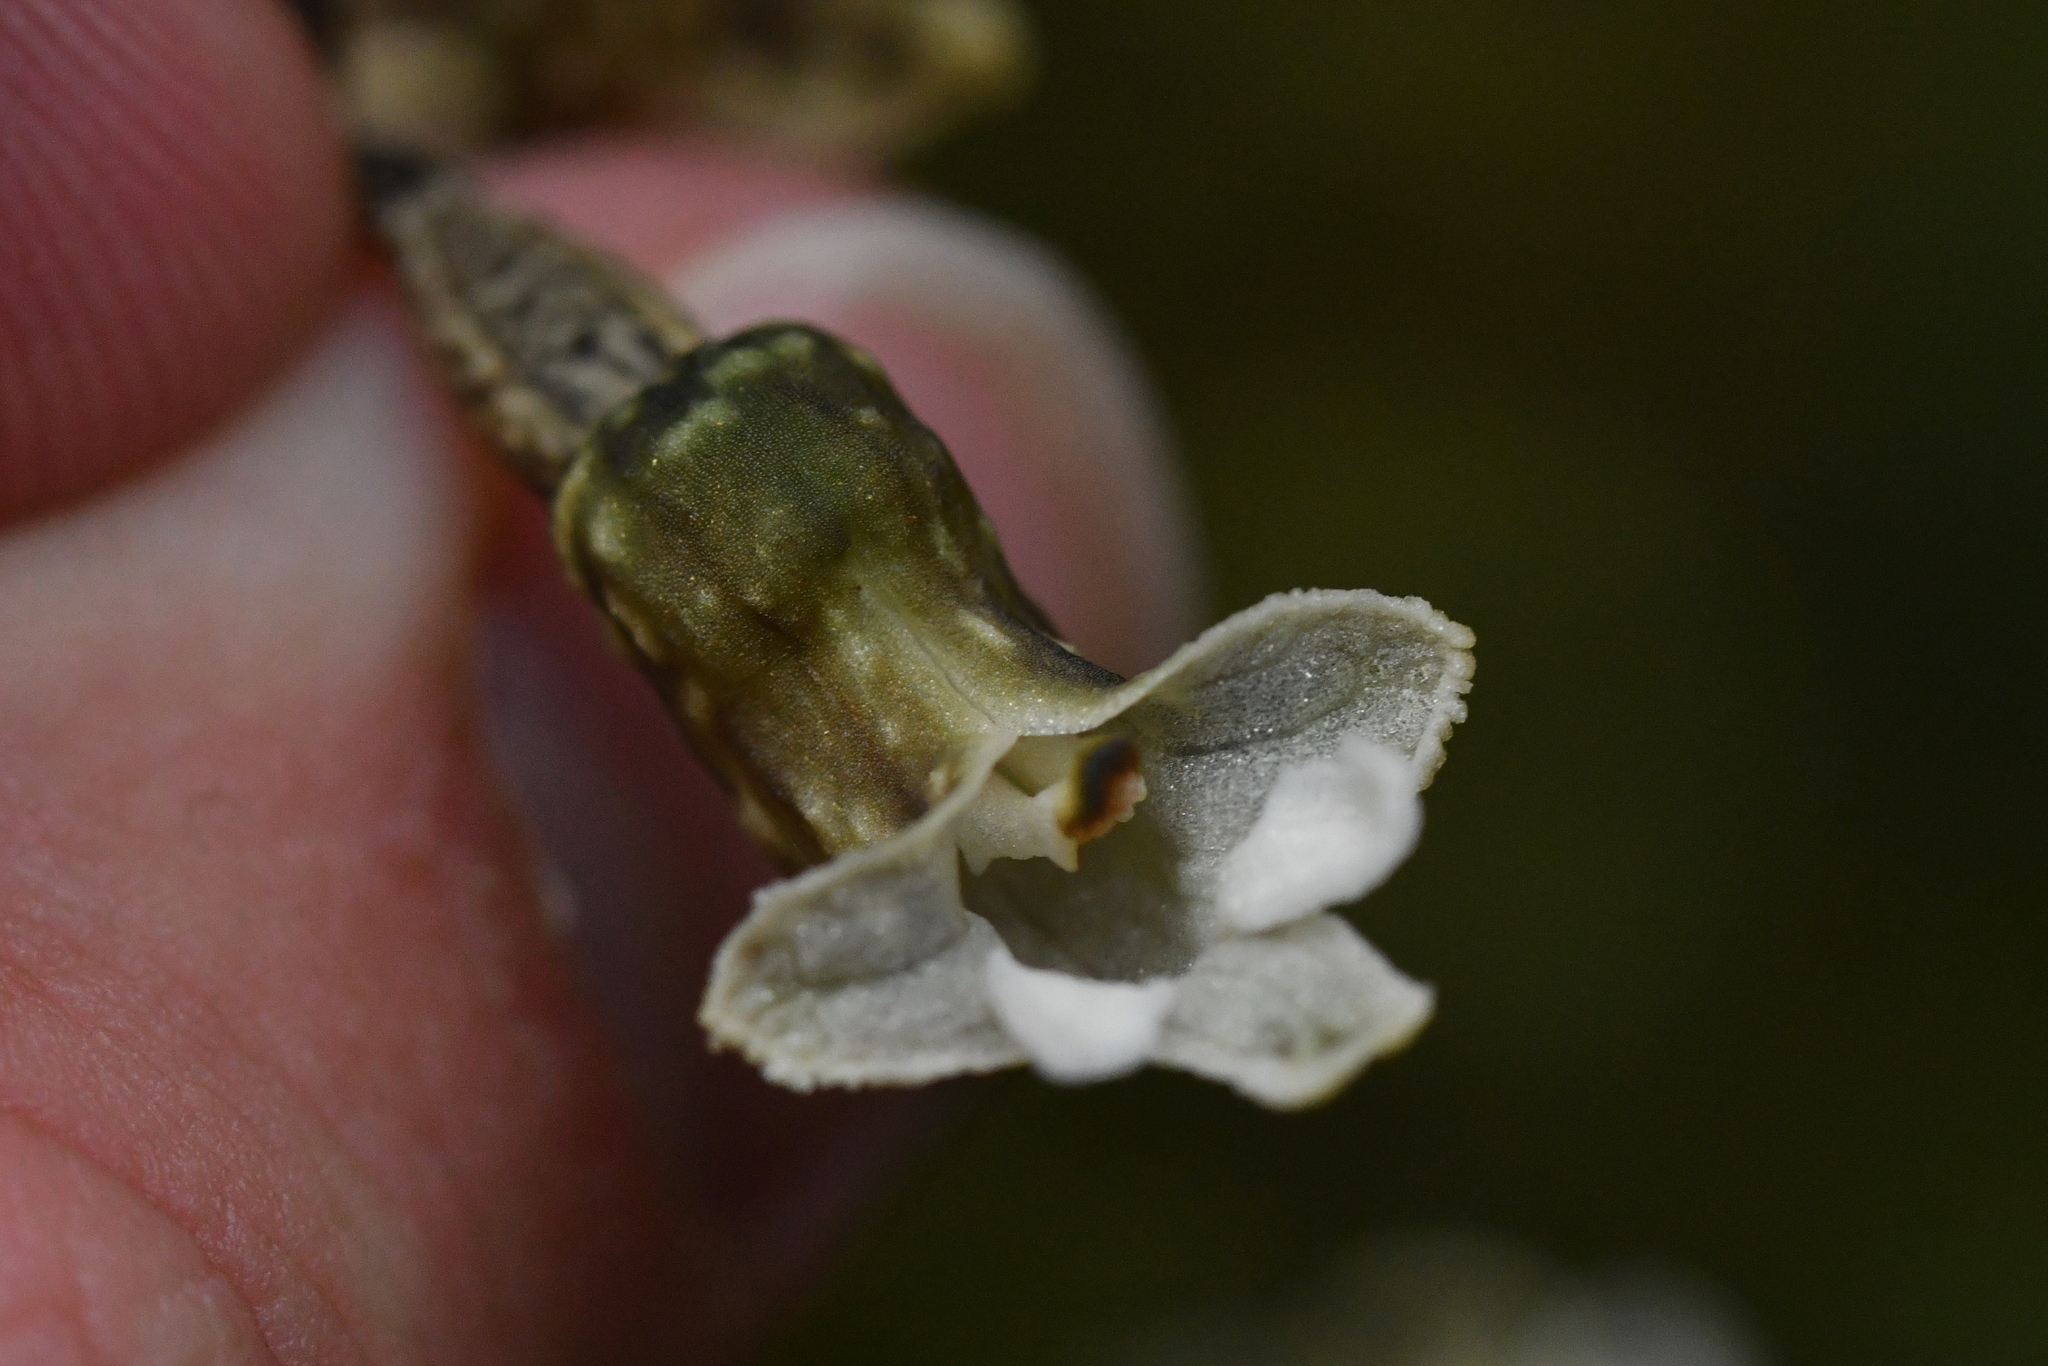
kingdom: Plantae
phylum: Tracheophyta
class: Liliopsida
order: Asparagales
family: Orchidaceae
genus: Gastrodia
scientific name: Gastrodia cunninghamii
